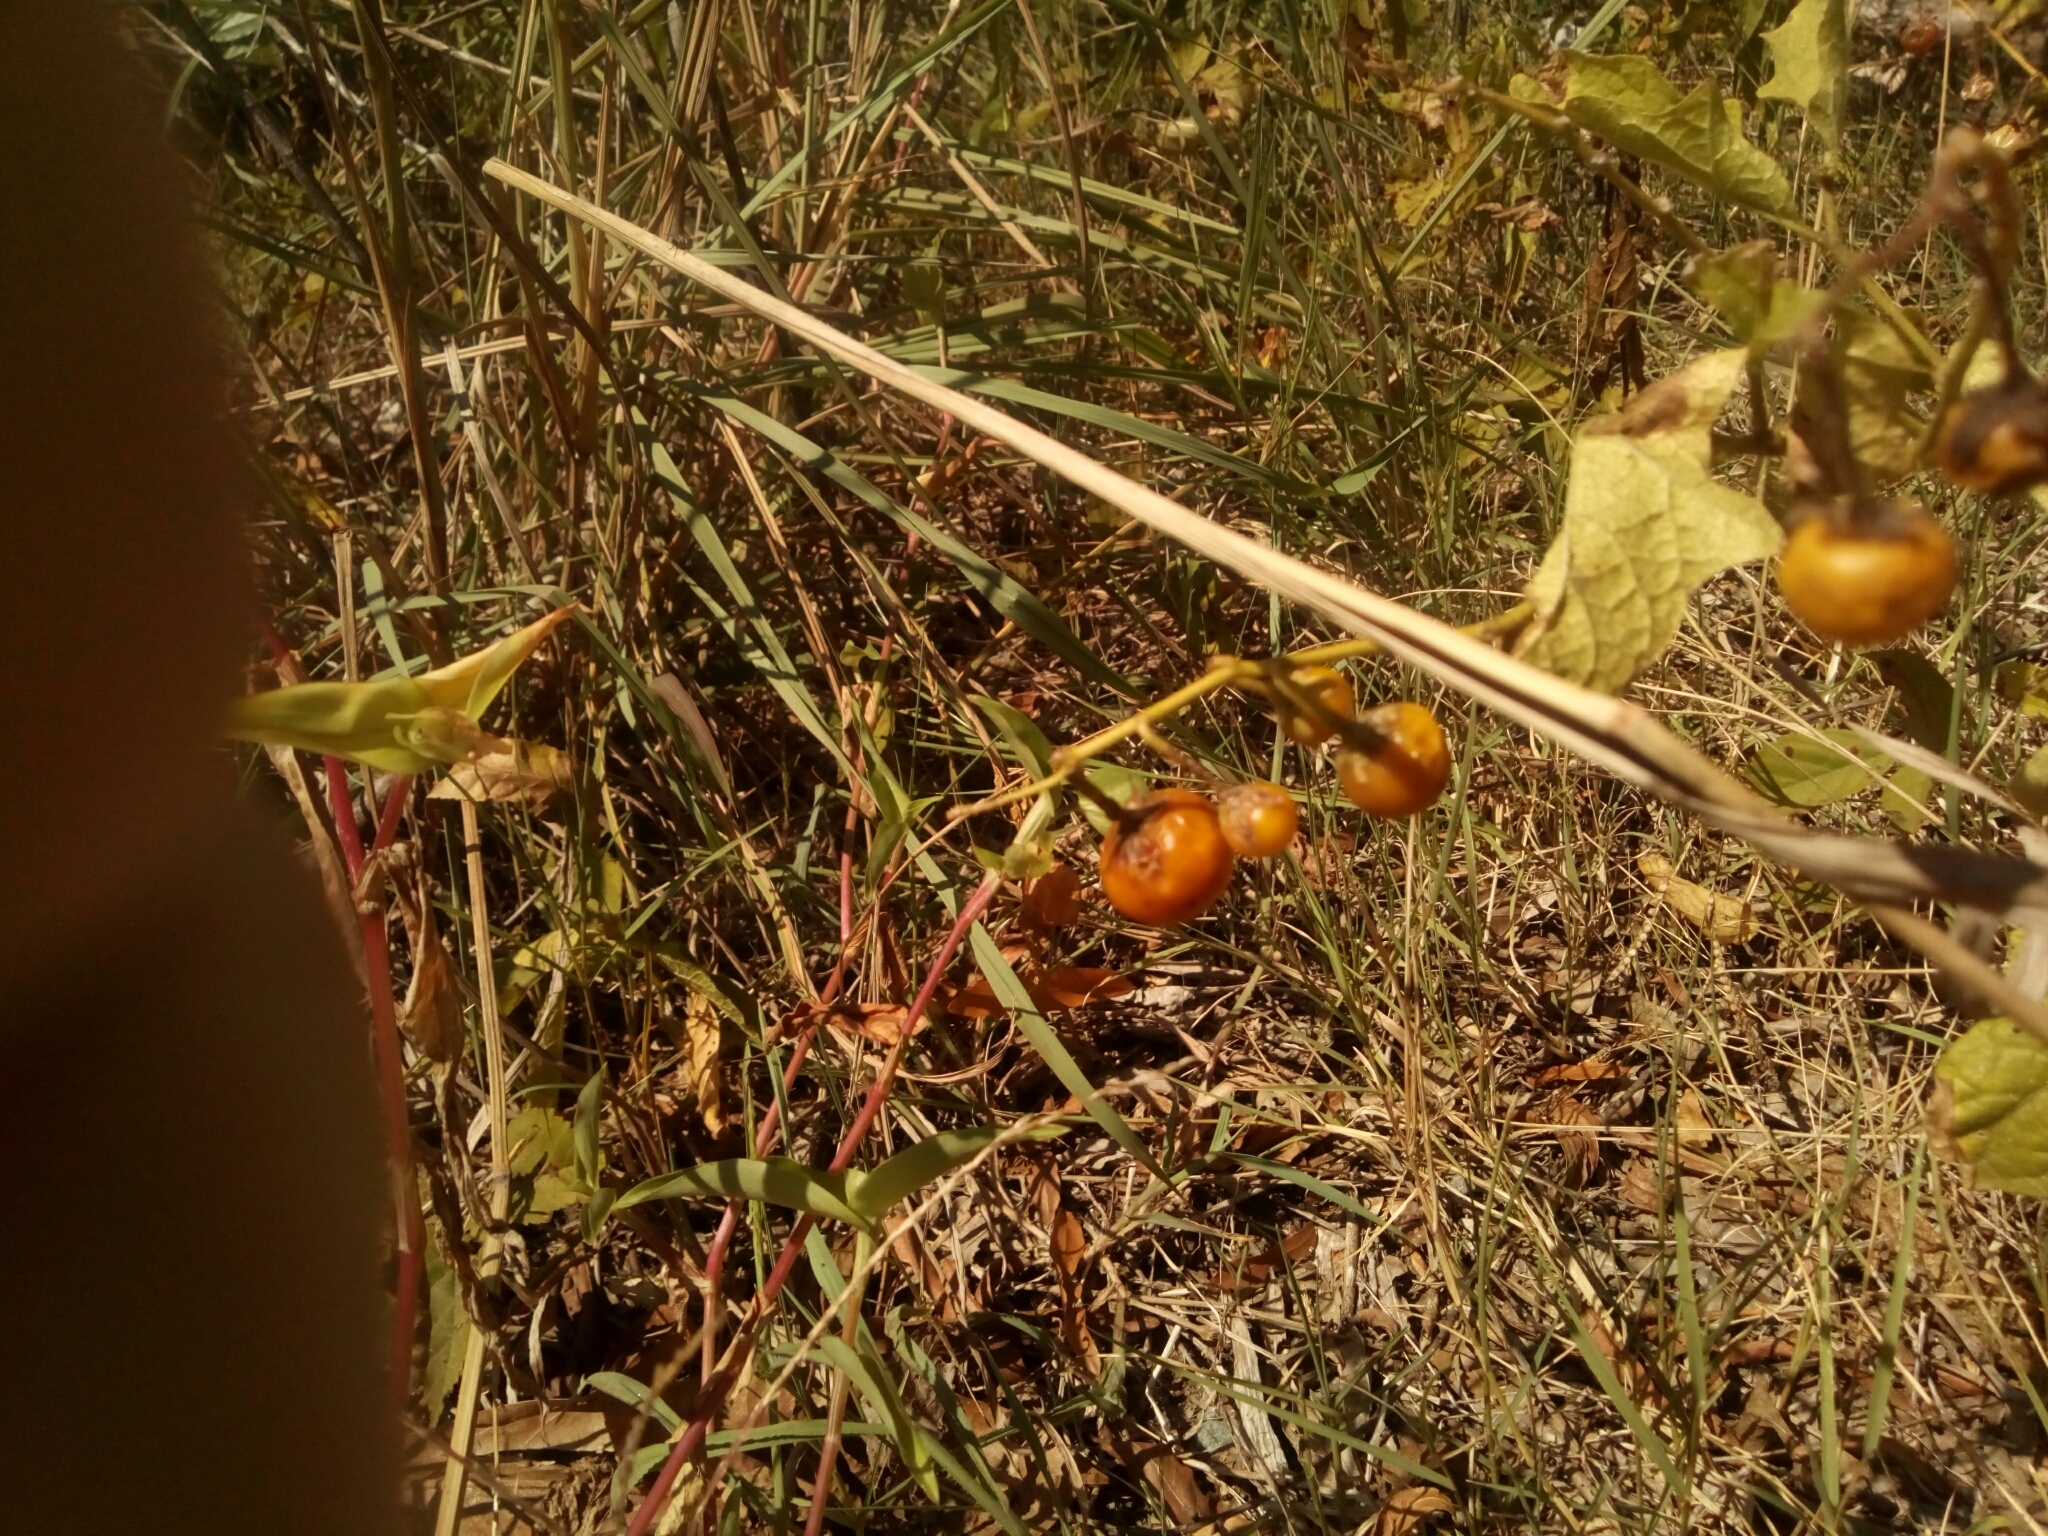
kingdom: Plantae
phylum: Tracheophyta
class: Magnoliopsida
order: Solanales
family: Solanaceae
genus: Solanum
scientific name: Solanum carolinense
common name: Horse-nettle
